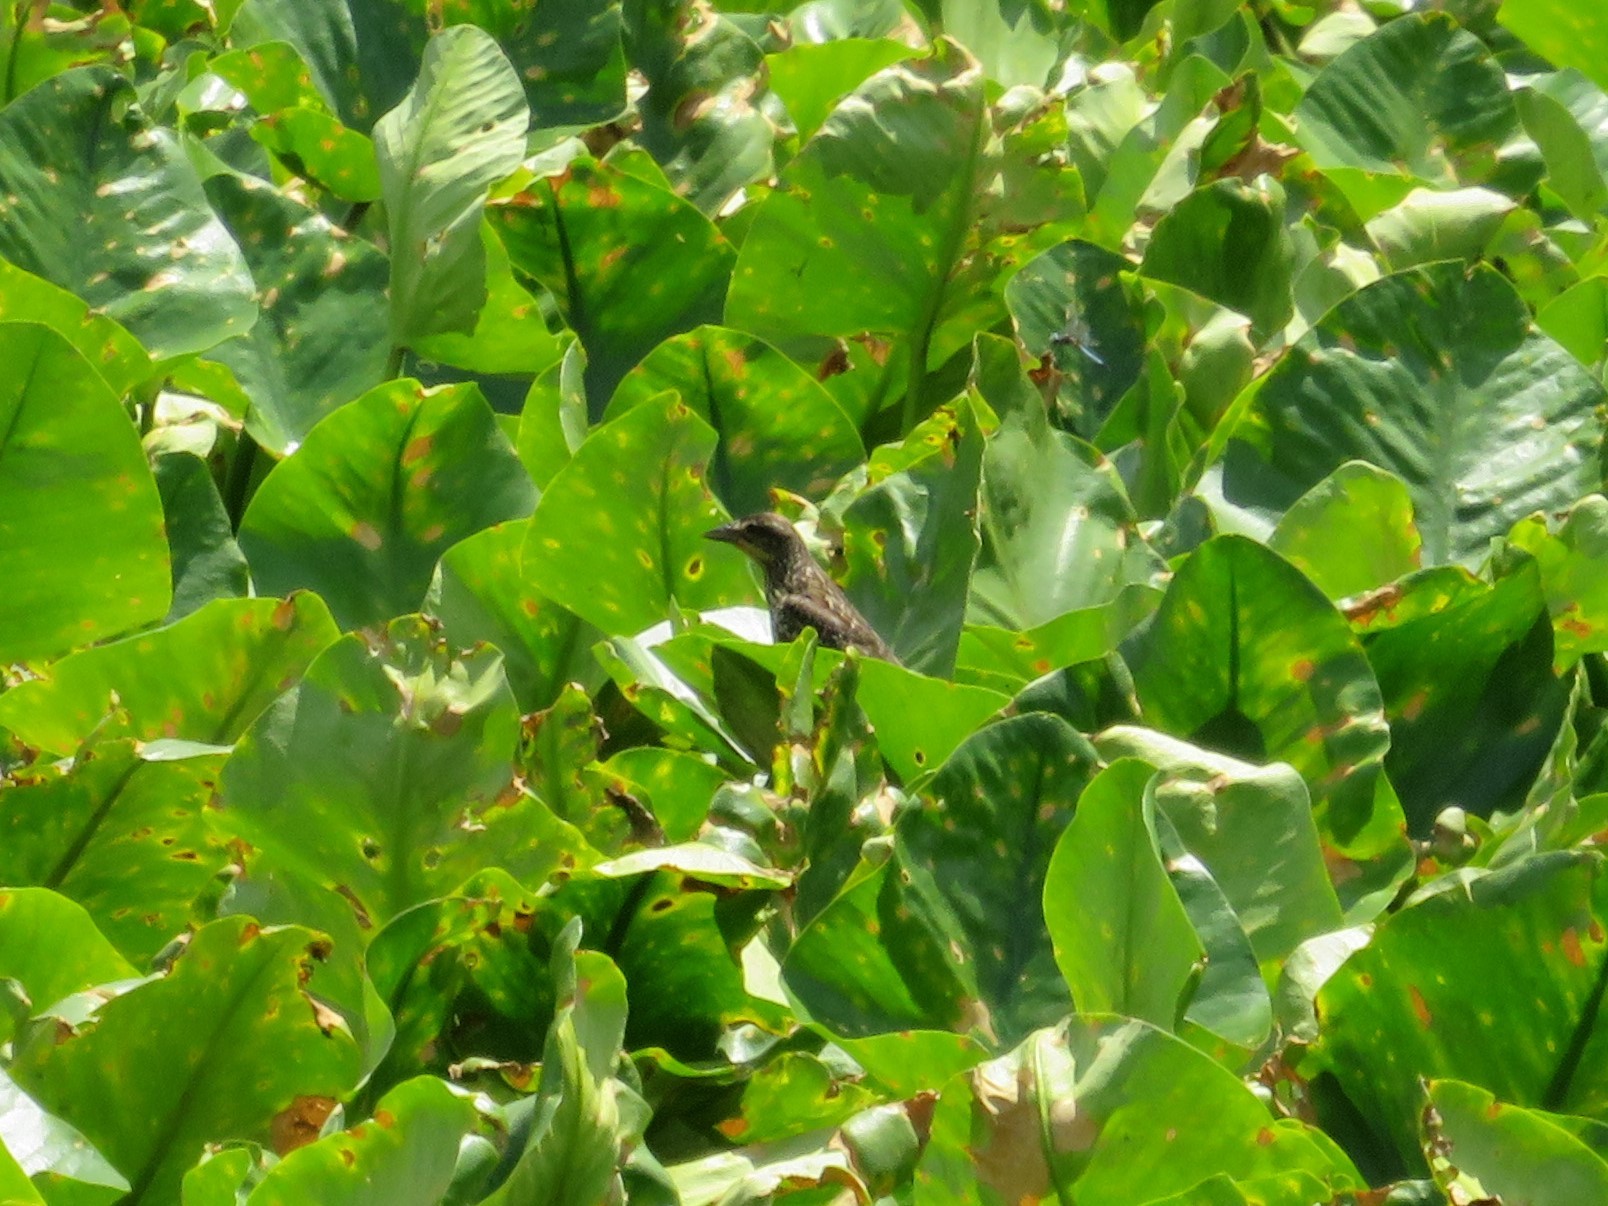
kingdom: Animalia
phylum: Chordata
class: Aves
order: Passeriformes
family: Icteridae
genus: Agelaius
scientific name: Agelaius phoeniceus
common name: Red-winged blackbird
